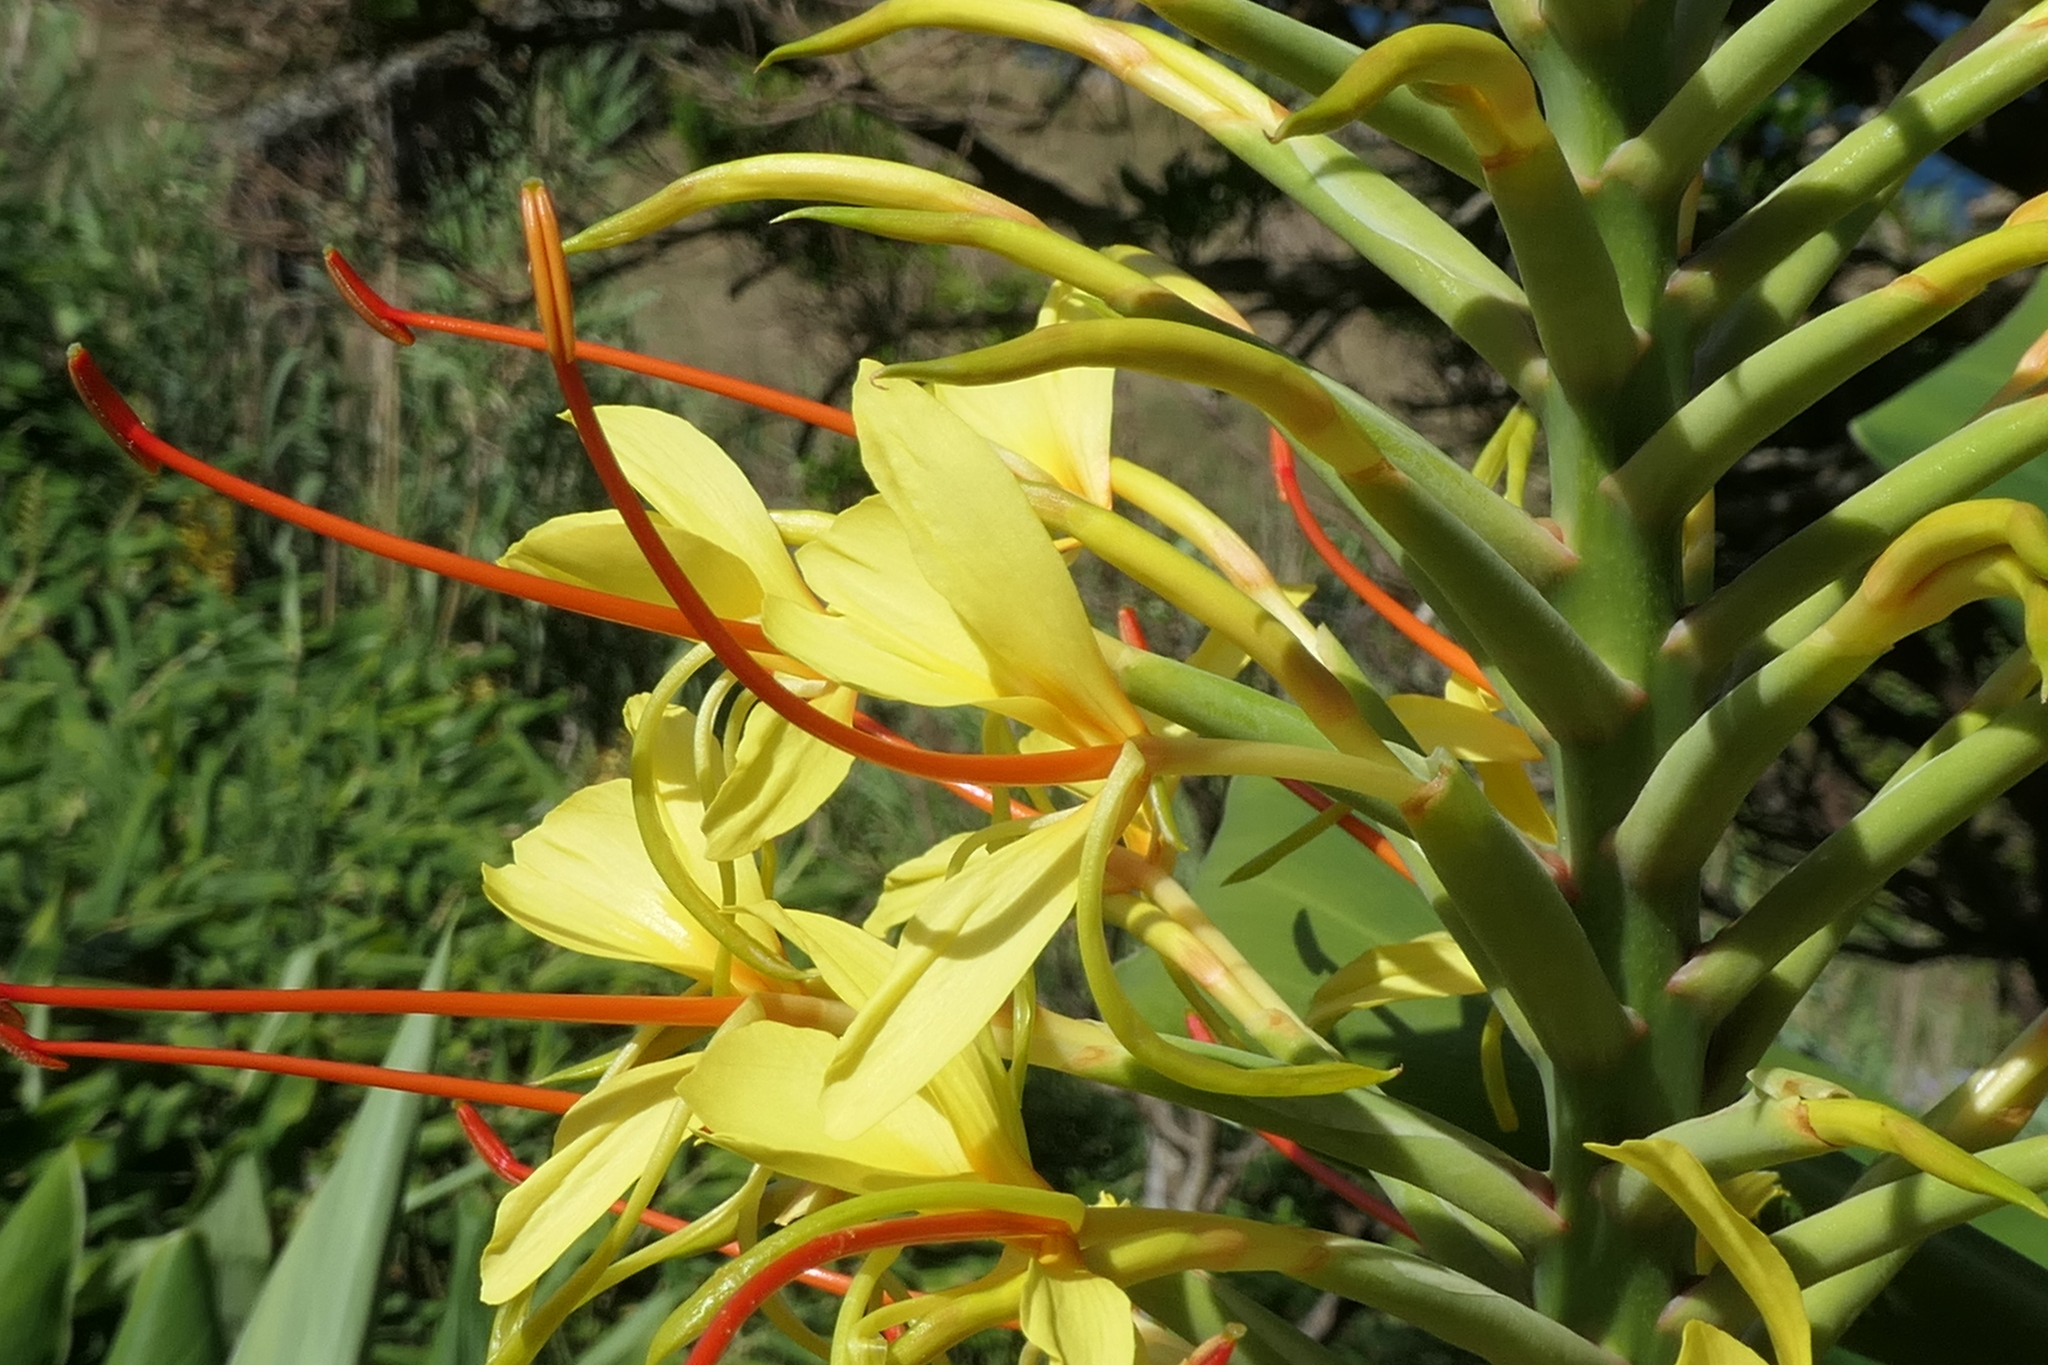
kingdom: Plantae
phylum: Tracheophyta
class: Liliopsida
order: Zingiberales
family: Zingiberaceae
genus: Hedychium
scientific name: Hedychium gardnerianum
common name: Himalayan ginger
